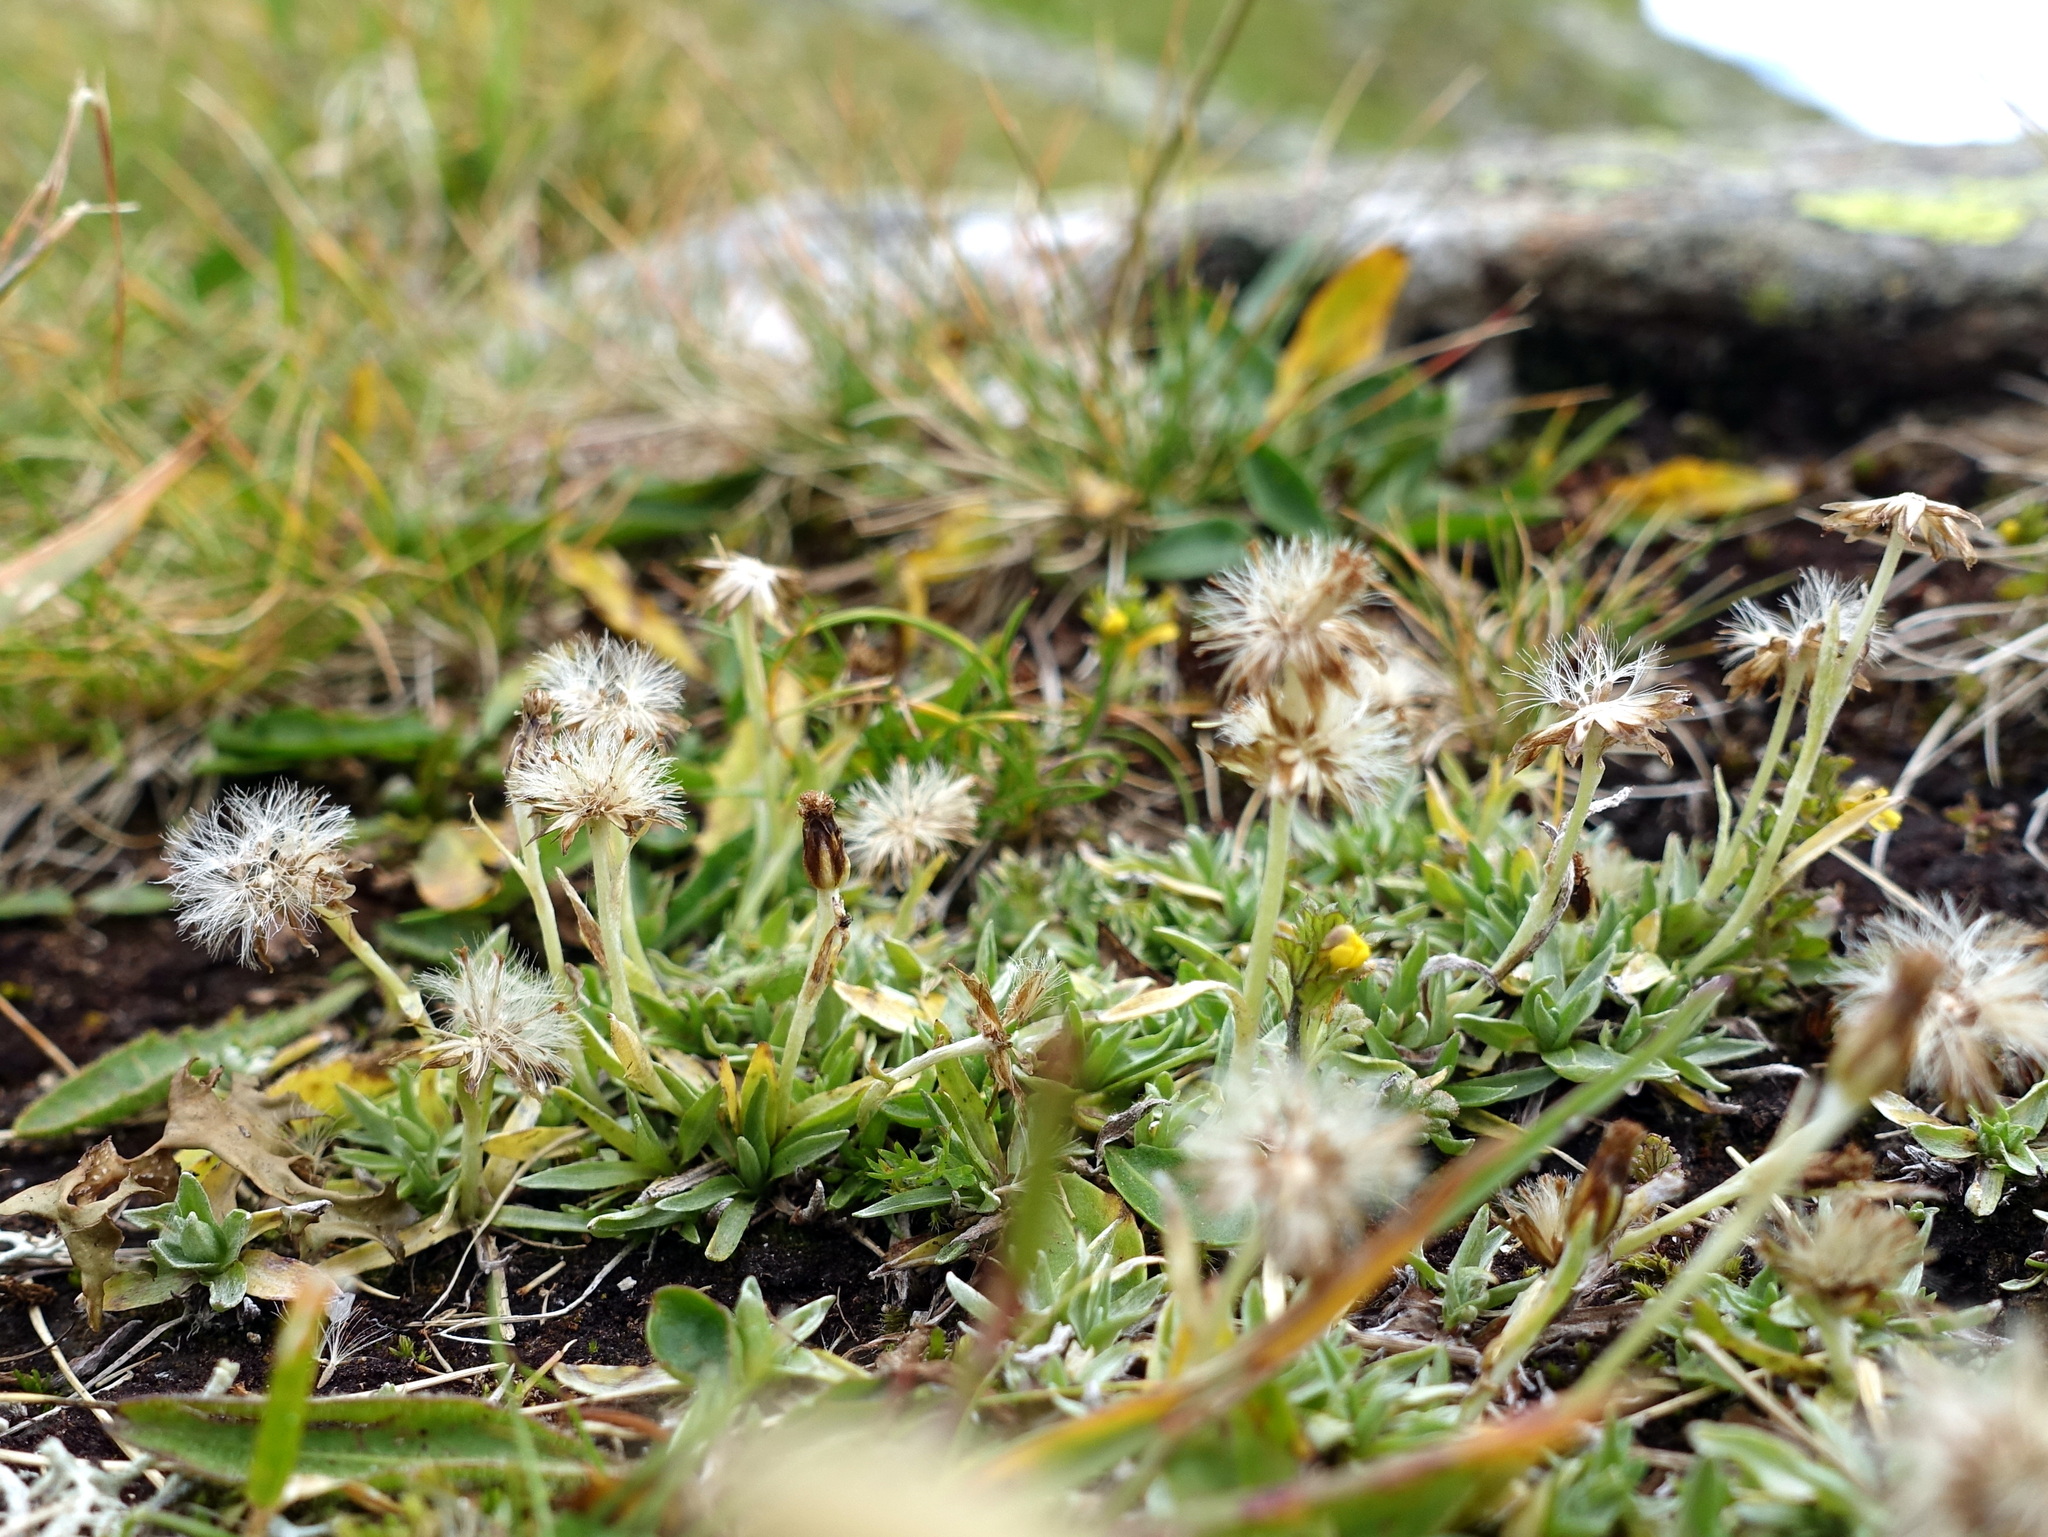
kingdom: Plantae
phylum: Tracheophyta
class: Magnoliopsida
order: Asterales
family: Asteraceae
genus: Omalotheca
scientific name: Omalotheca supina
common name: Alpine arctic-cudweed
